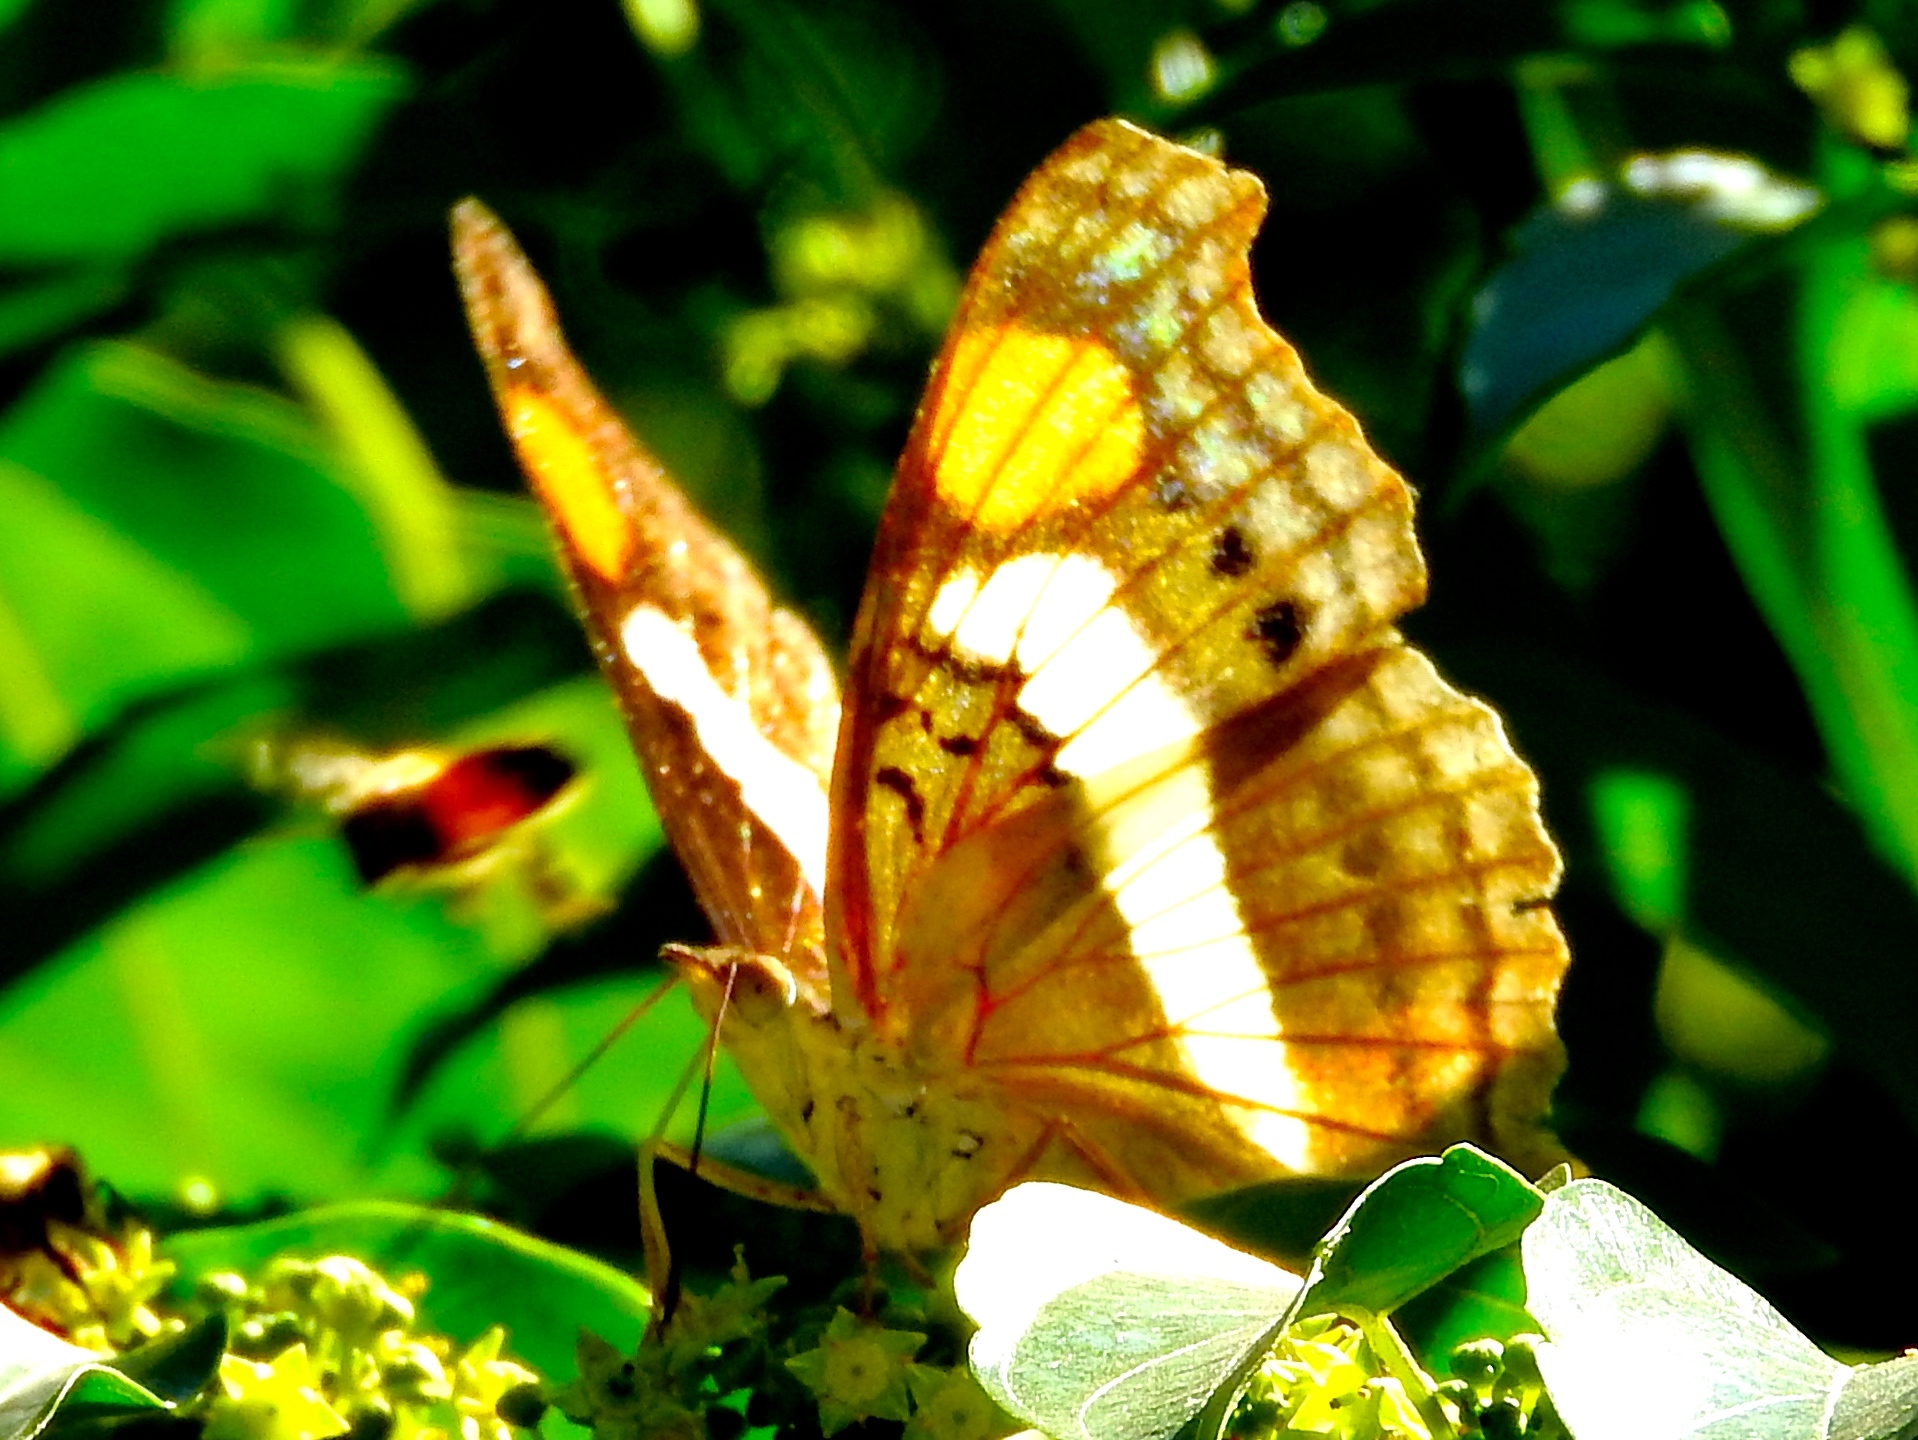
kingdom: Animalia
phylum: Arthropoda
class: Insecta
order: Lepidoptera
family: Nymphalidae
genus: Doxocopa
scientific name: Doxocopa laure
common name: Silver emperor
